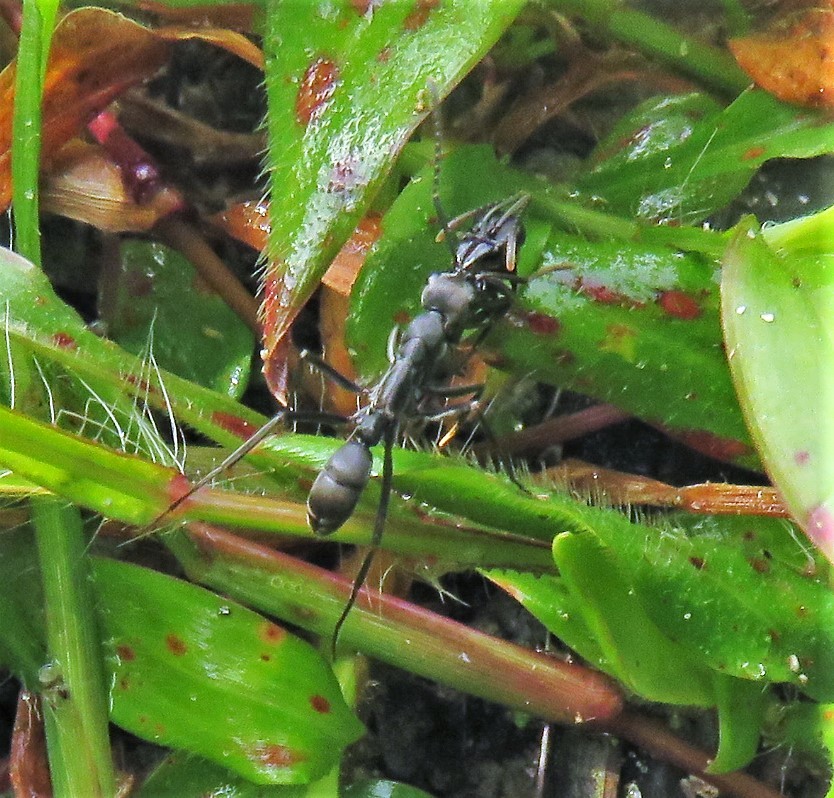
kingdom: Animalia
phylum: Arthropoda
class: Insecta
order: Hymenoptera
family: Formicidae
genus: Neoponera
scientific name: Neoponera verenae
